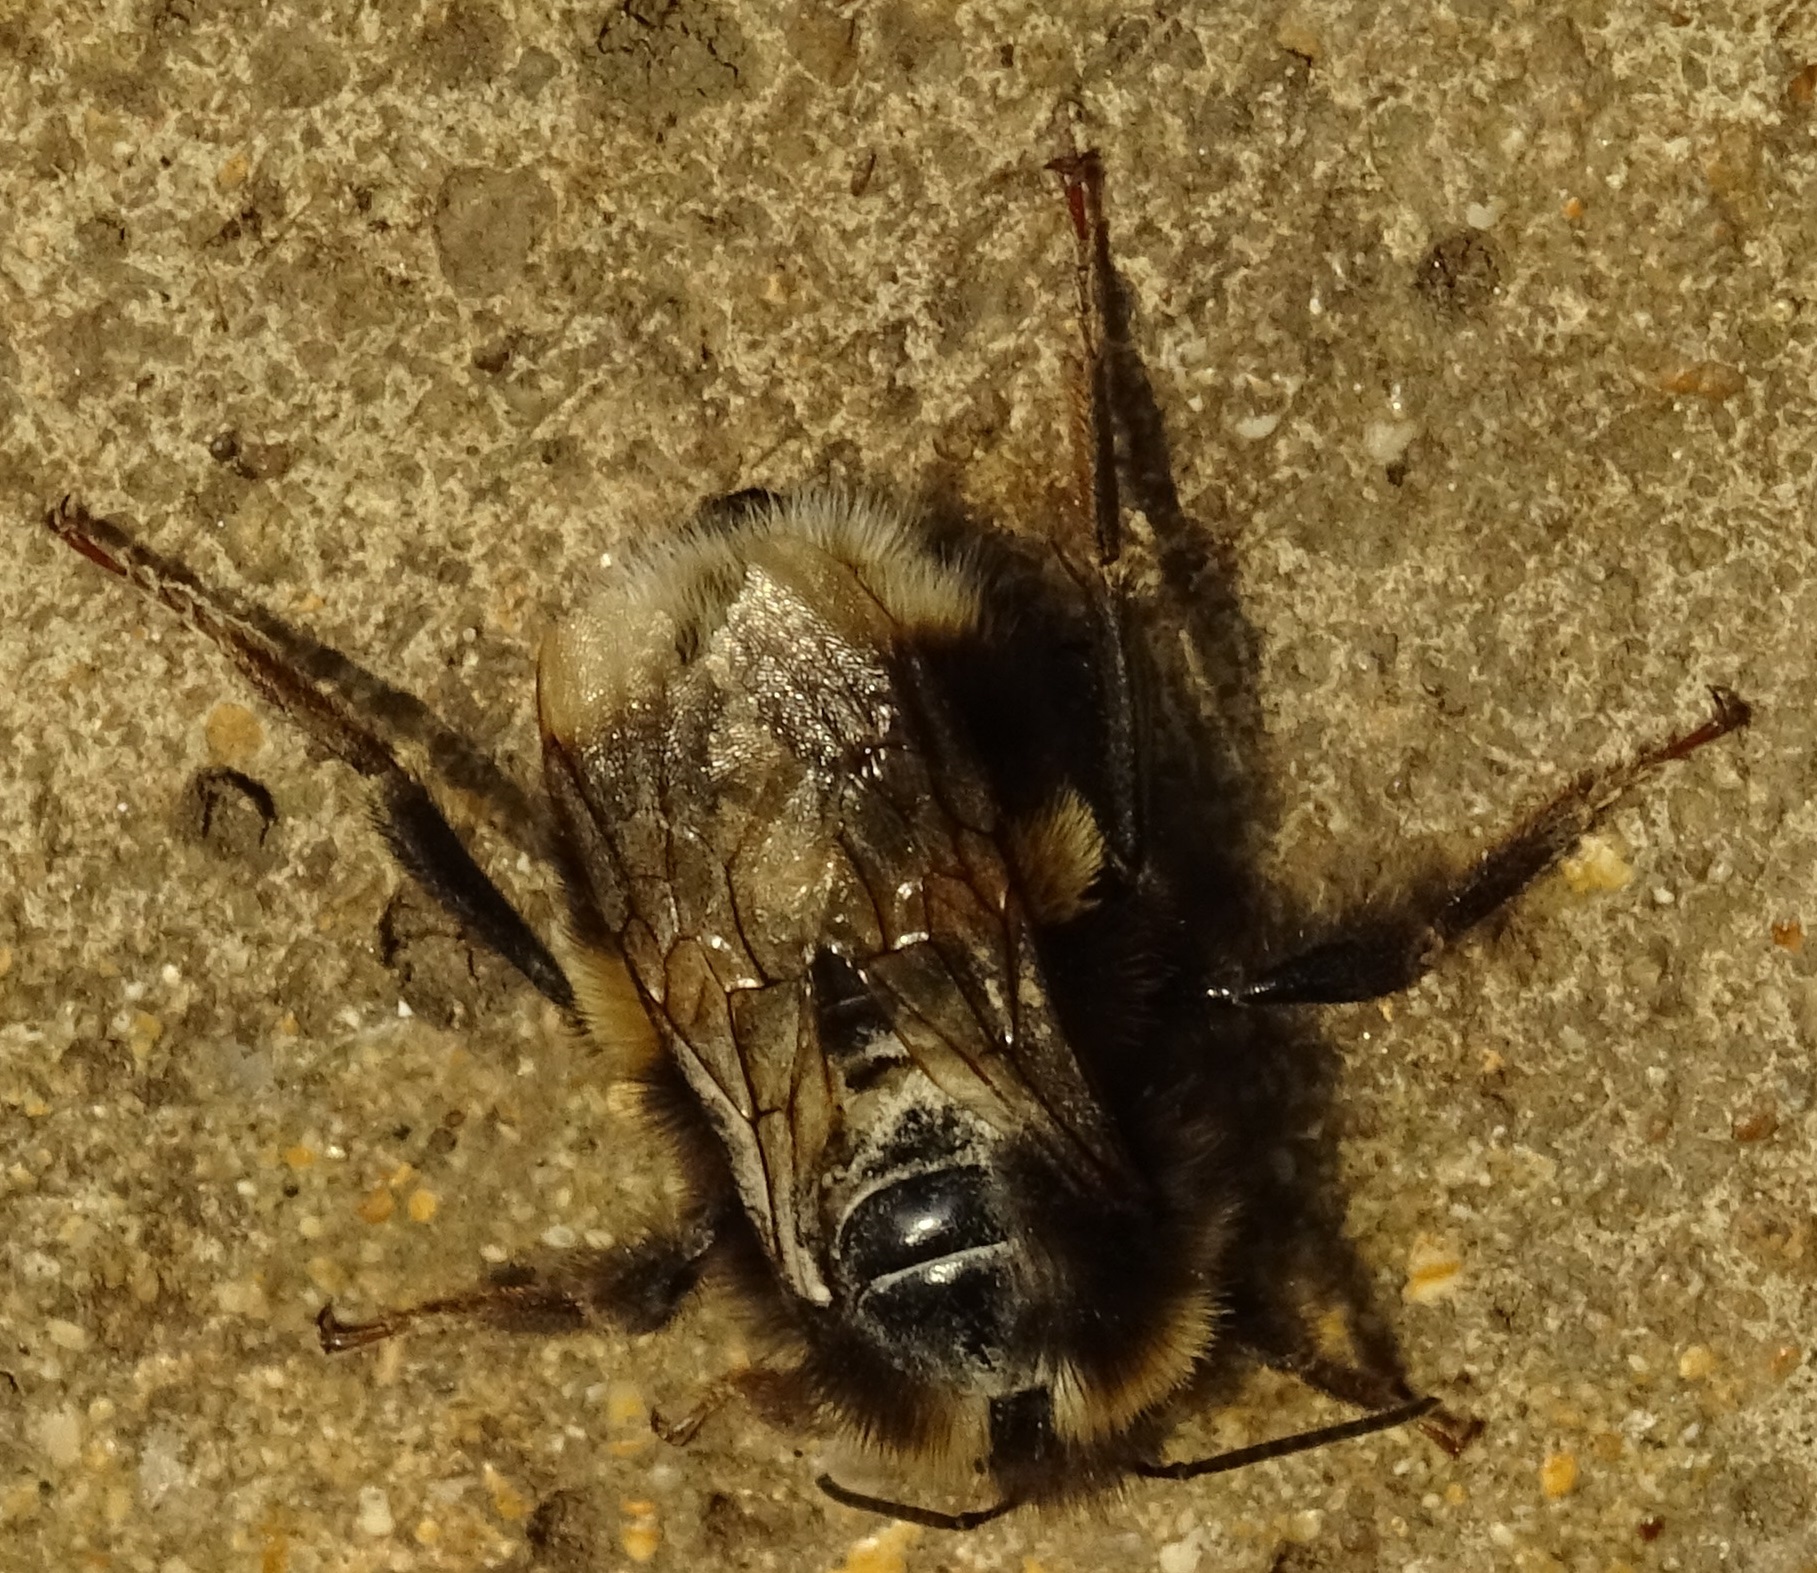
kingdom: Animalia
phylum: Arthropoda
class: Insecta
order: Hymenoptera
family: Apidae
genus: Bombus
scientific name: Bombus
